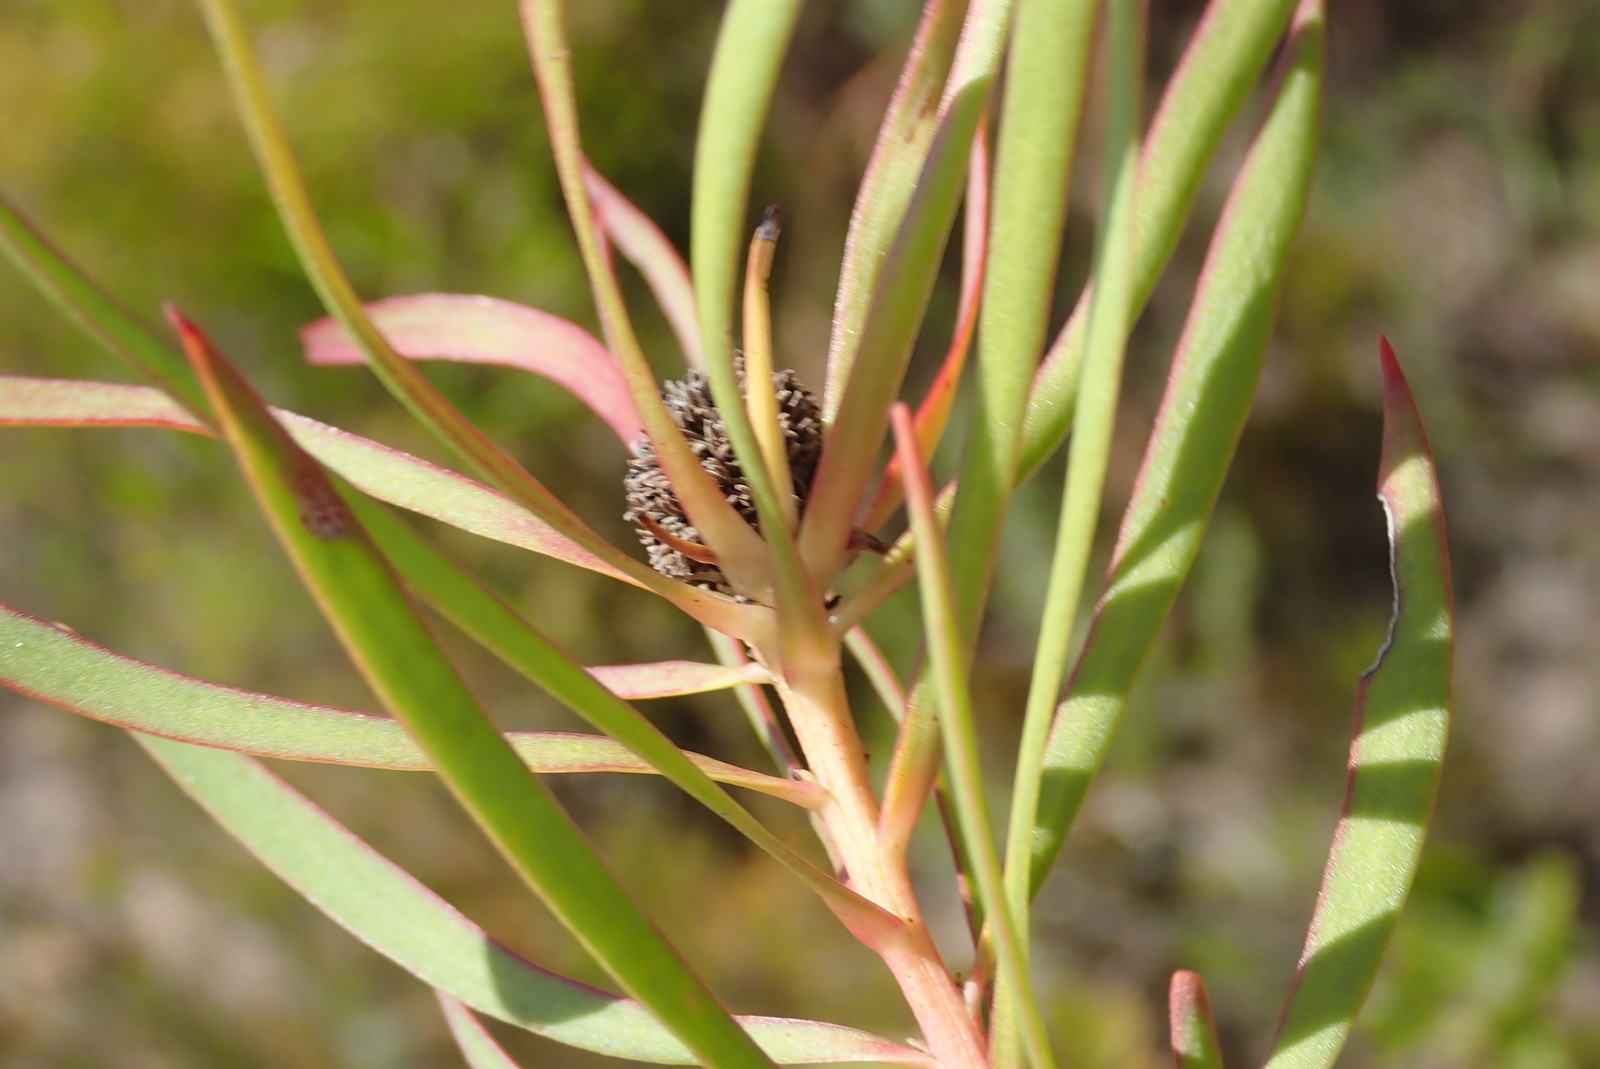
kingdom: Plantae
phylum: Tracheophyta
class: Magnoliopsida
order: Proteales
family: Proteaceae
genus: Leucadendron
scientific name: Leucadendron salignum
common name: Common sunshine conebush
